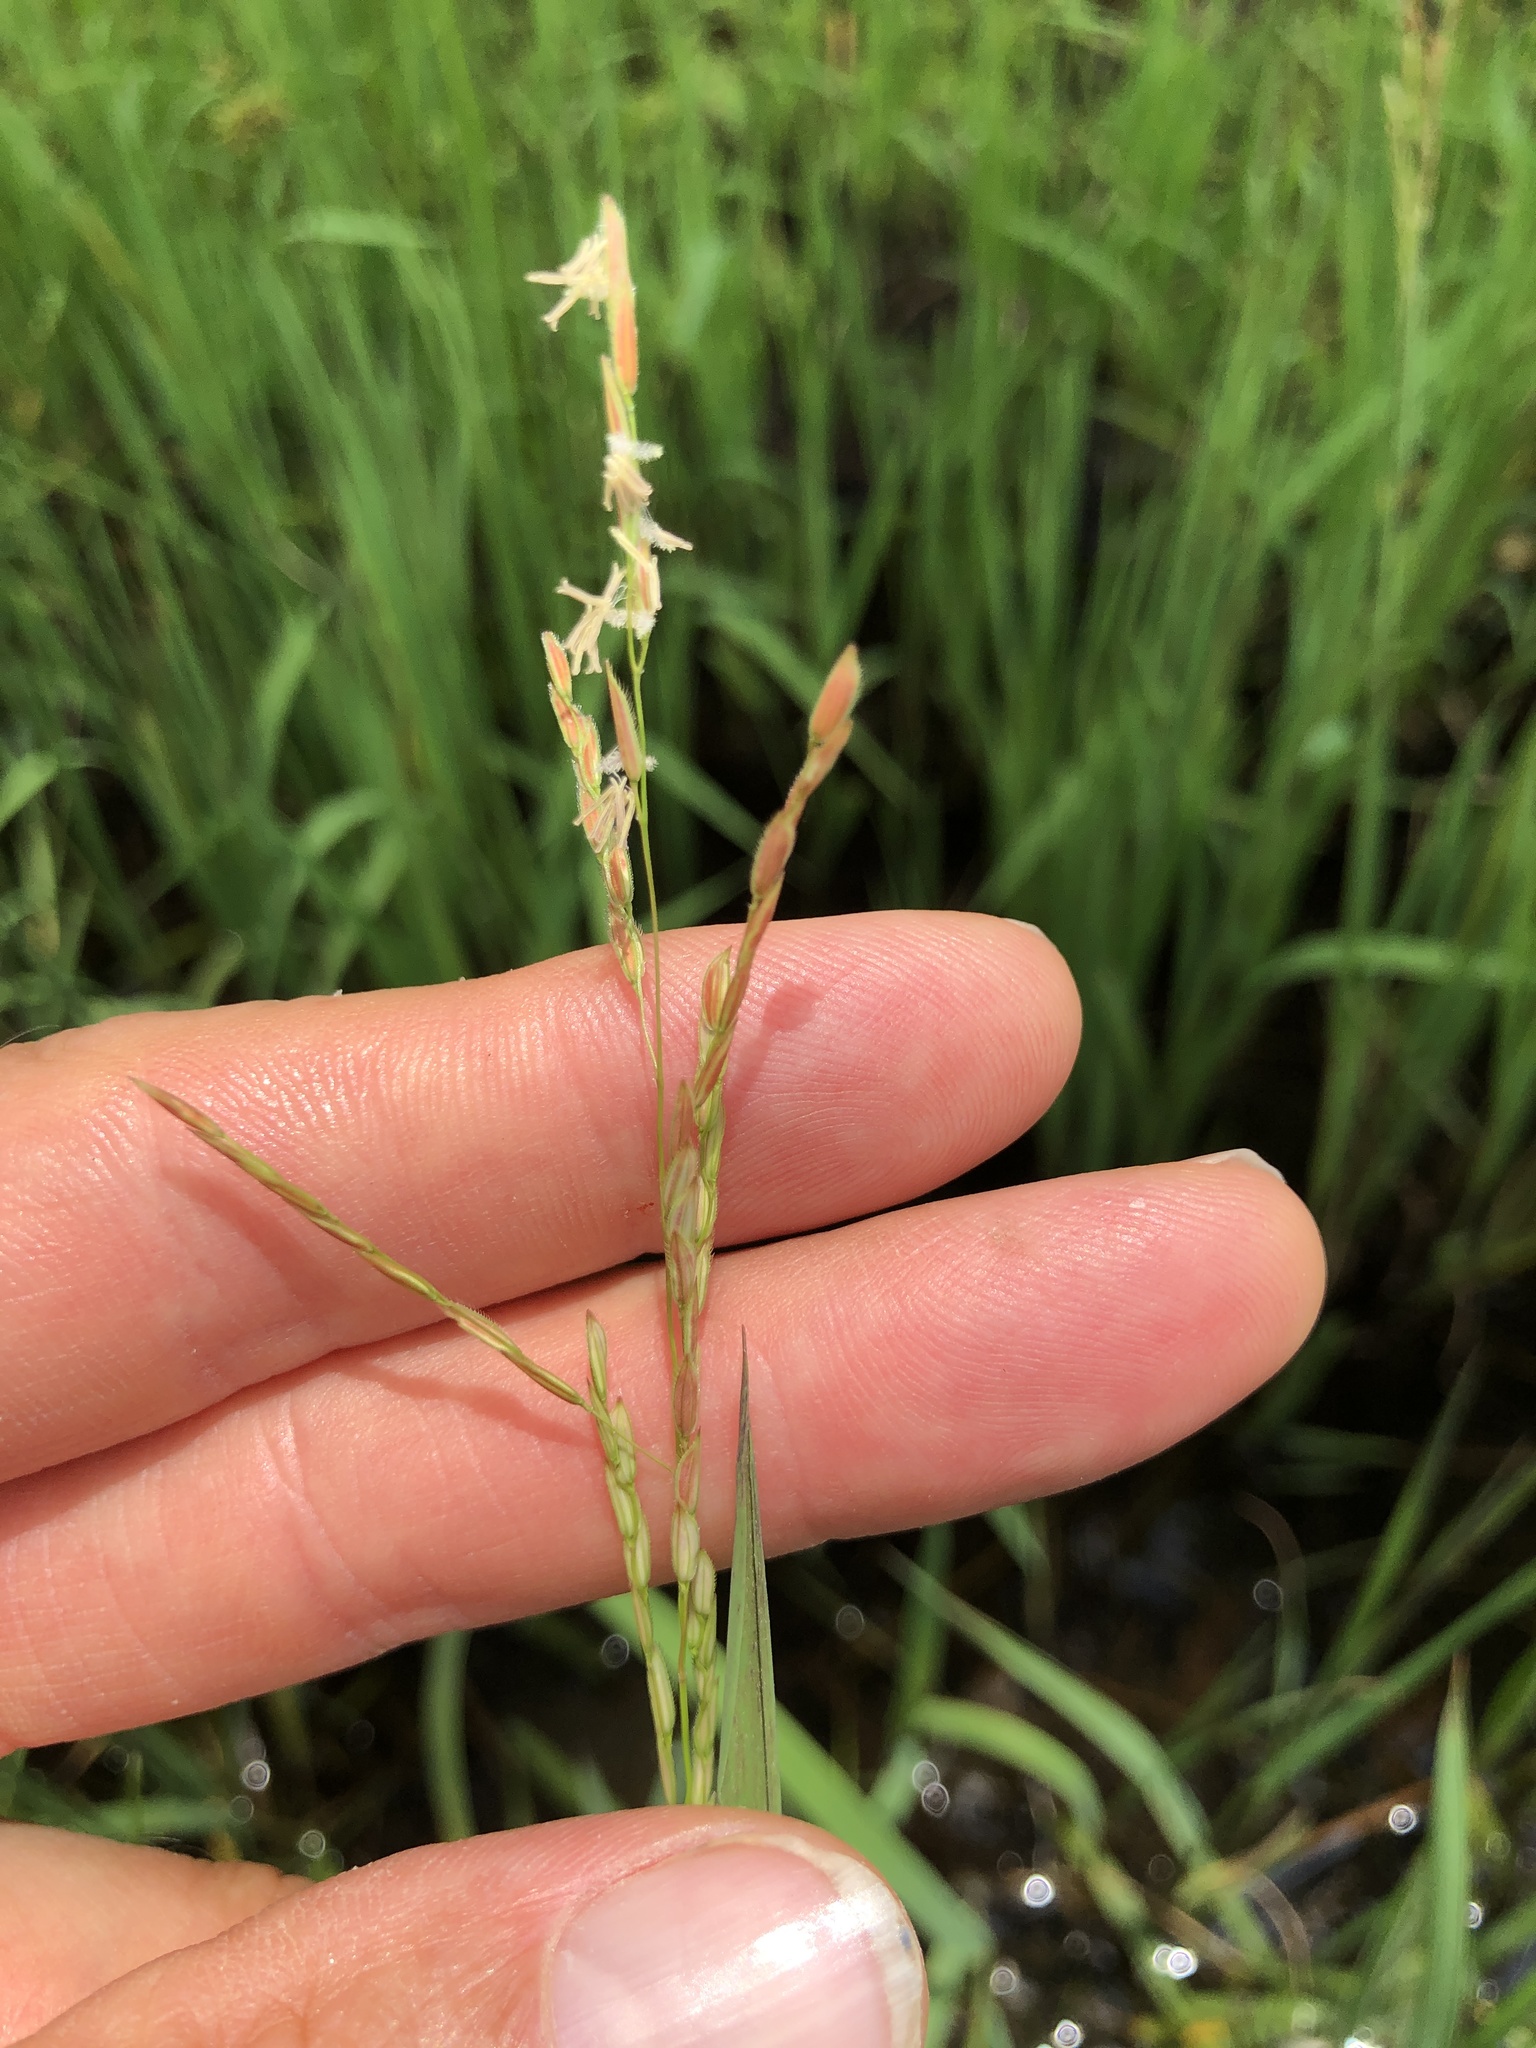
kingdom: Plantae
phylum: Tracheophyta
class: Liliopsida
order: Poales
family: Poaceae
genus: Leersia
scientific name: Leersia hexandra
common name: Southern cut grass
